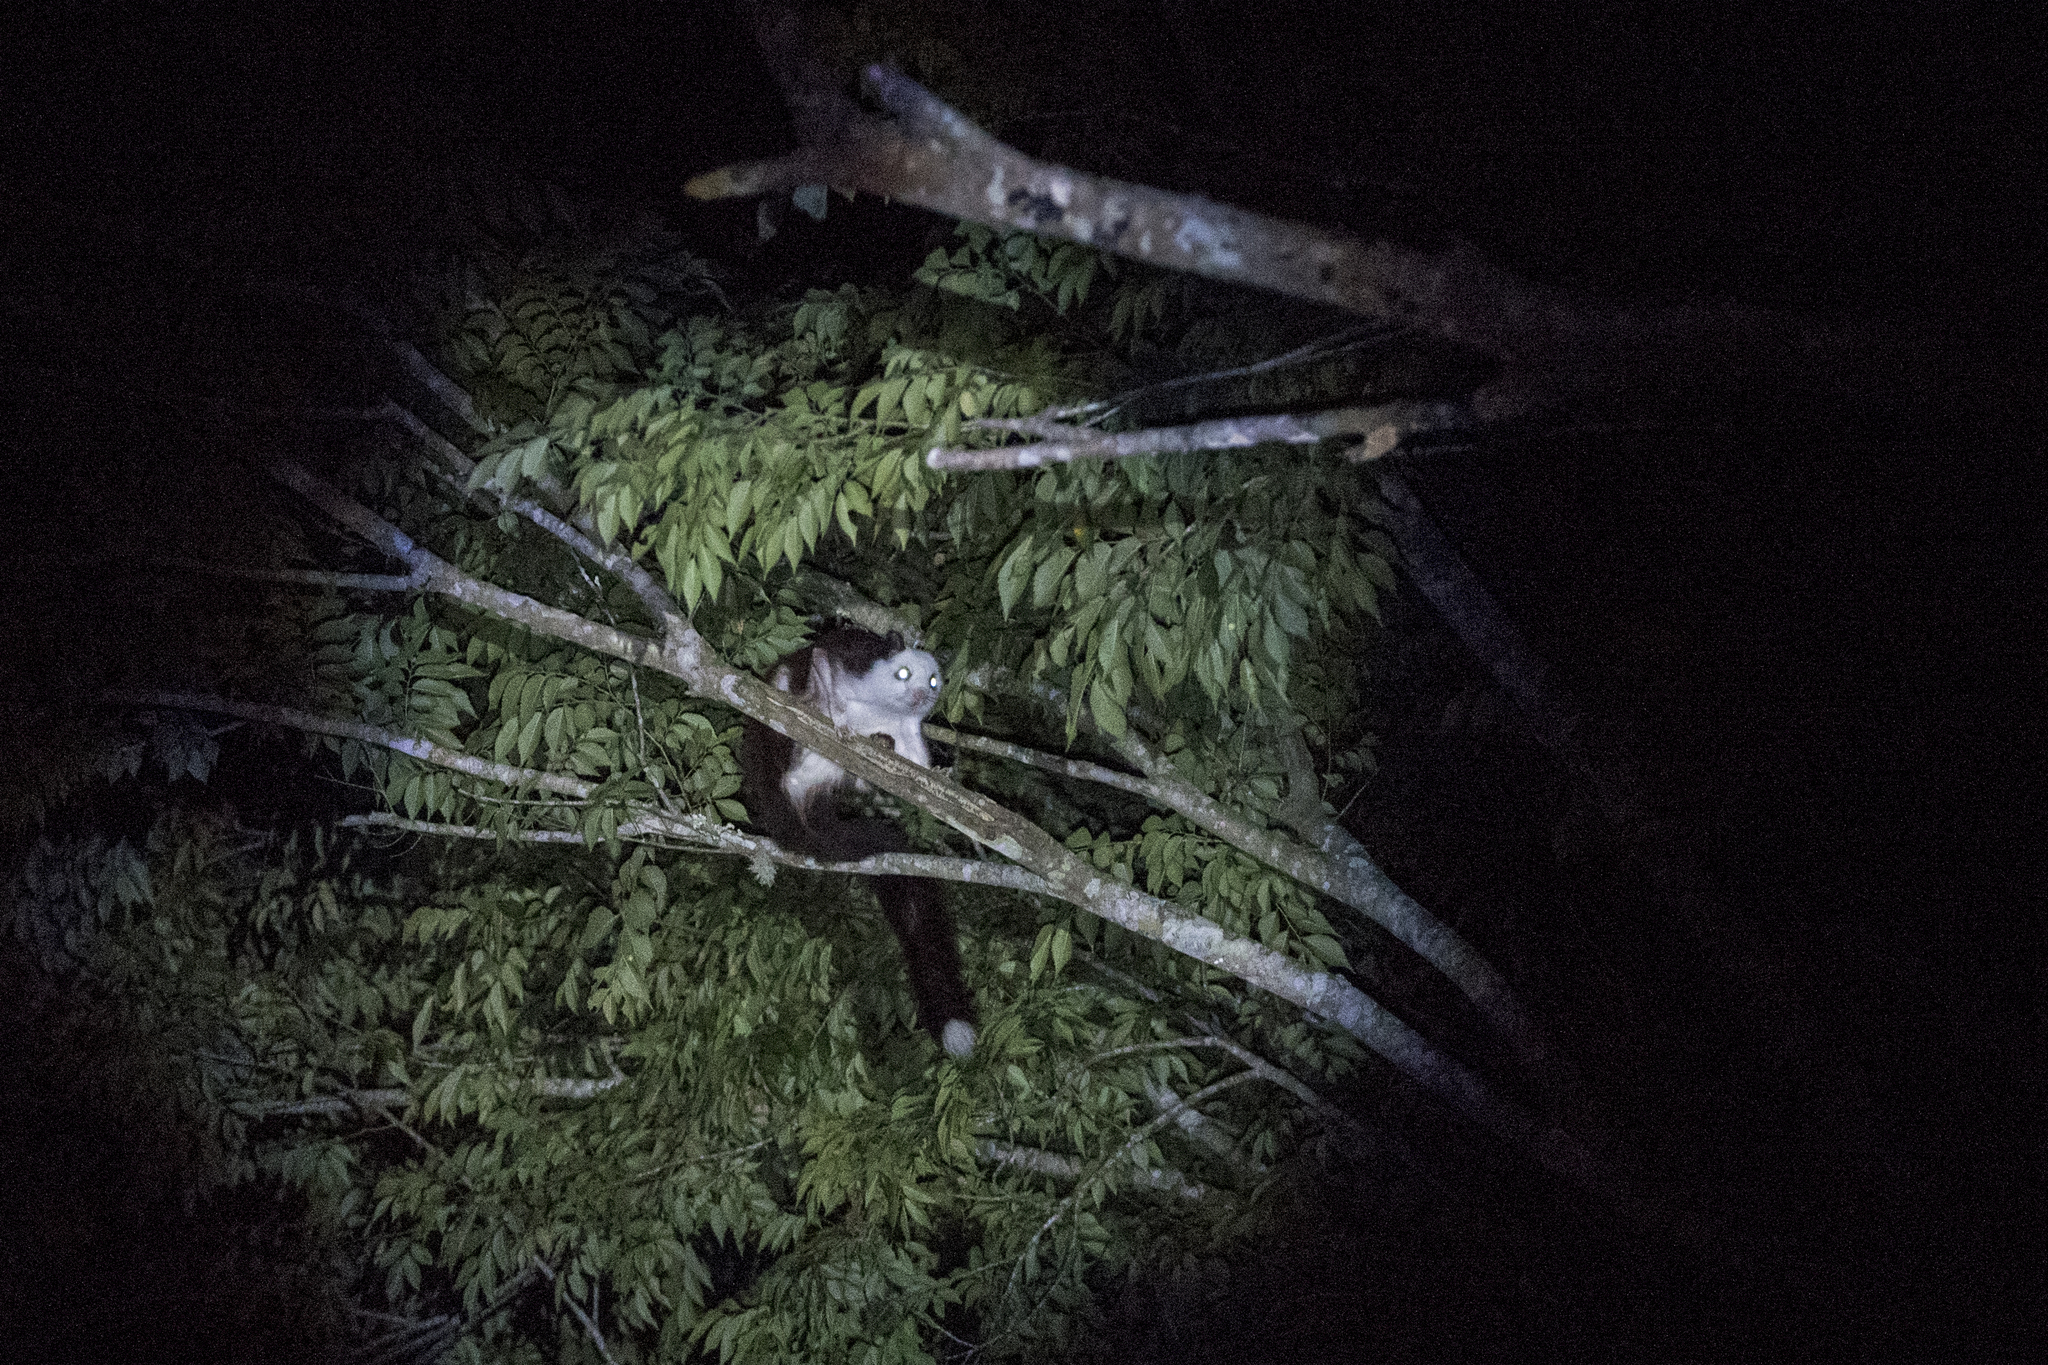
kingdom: Animalia
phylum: Chordata
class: Mammalia
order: Rodentia
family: Sciuridae
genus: Petaurista
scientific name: Petaurista lena
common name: Taiwan giant flying squirrel
